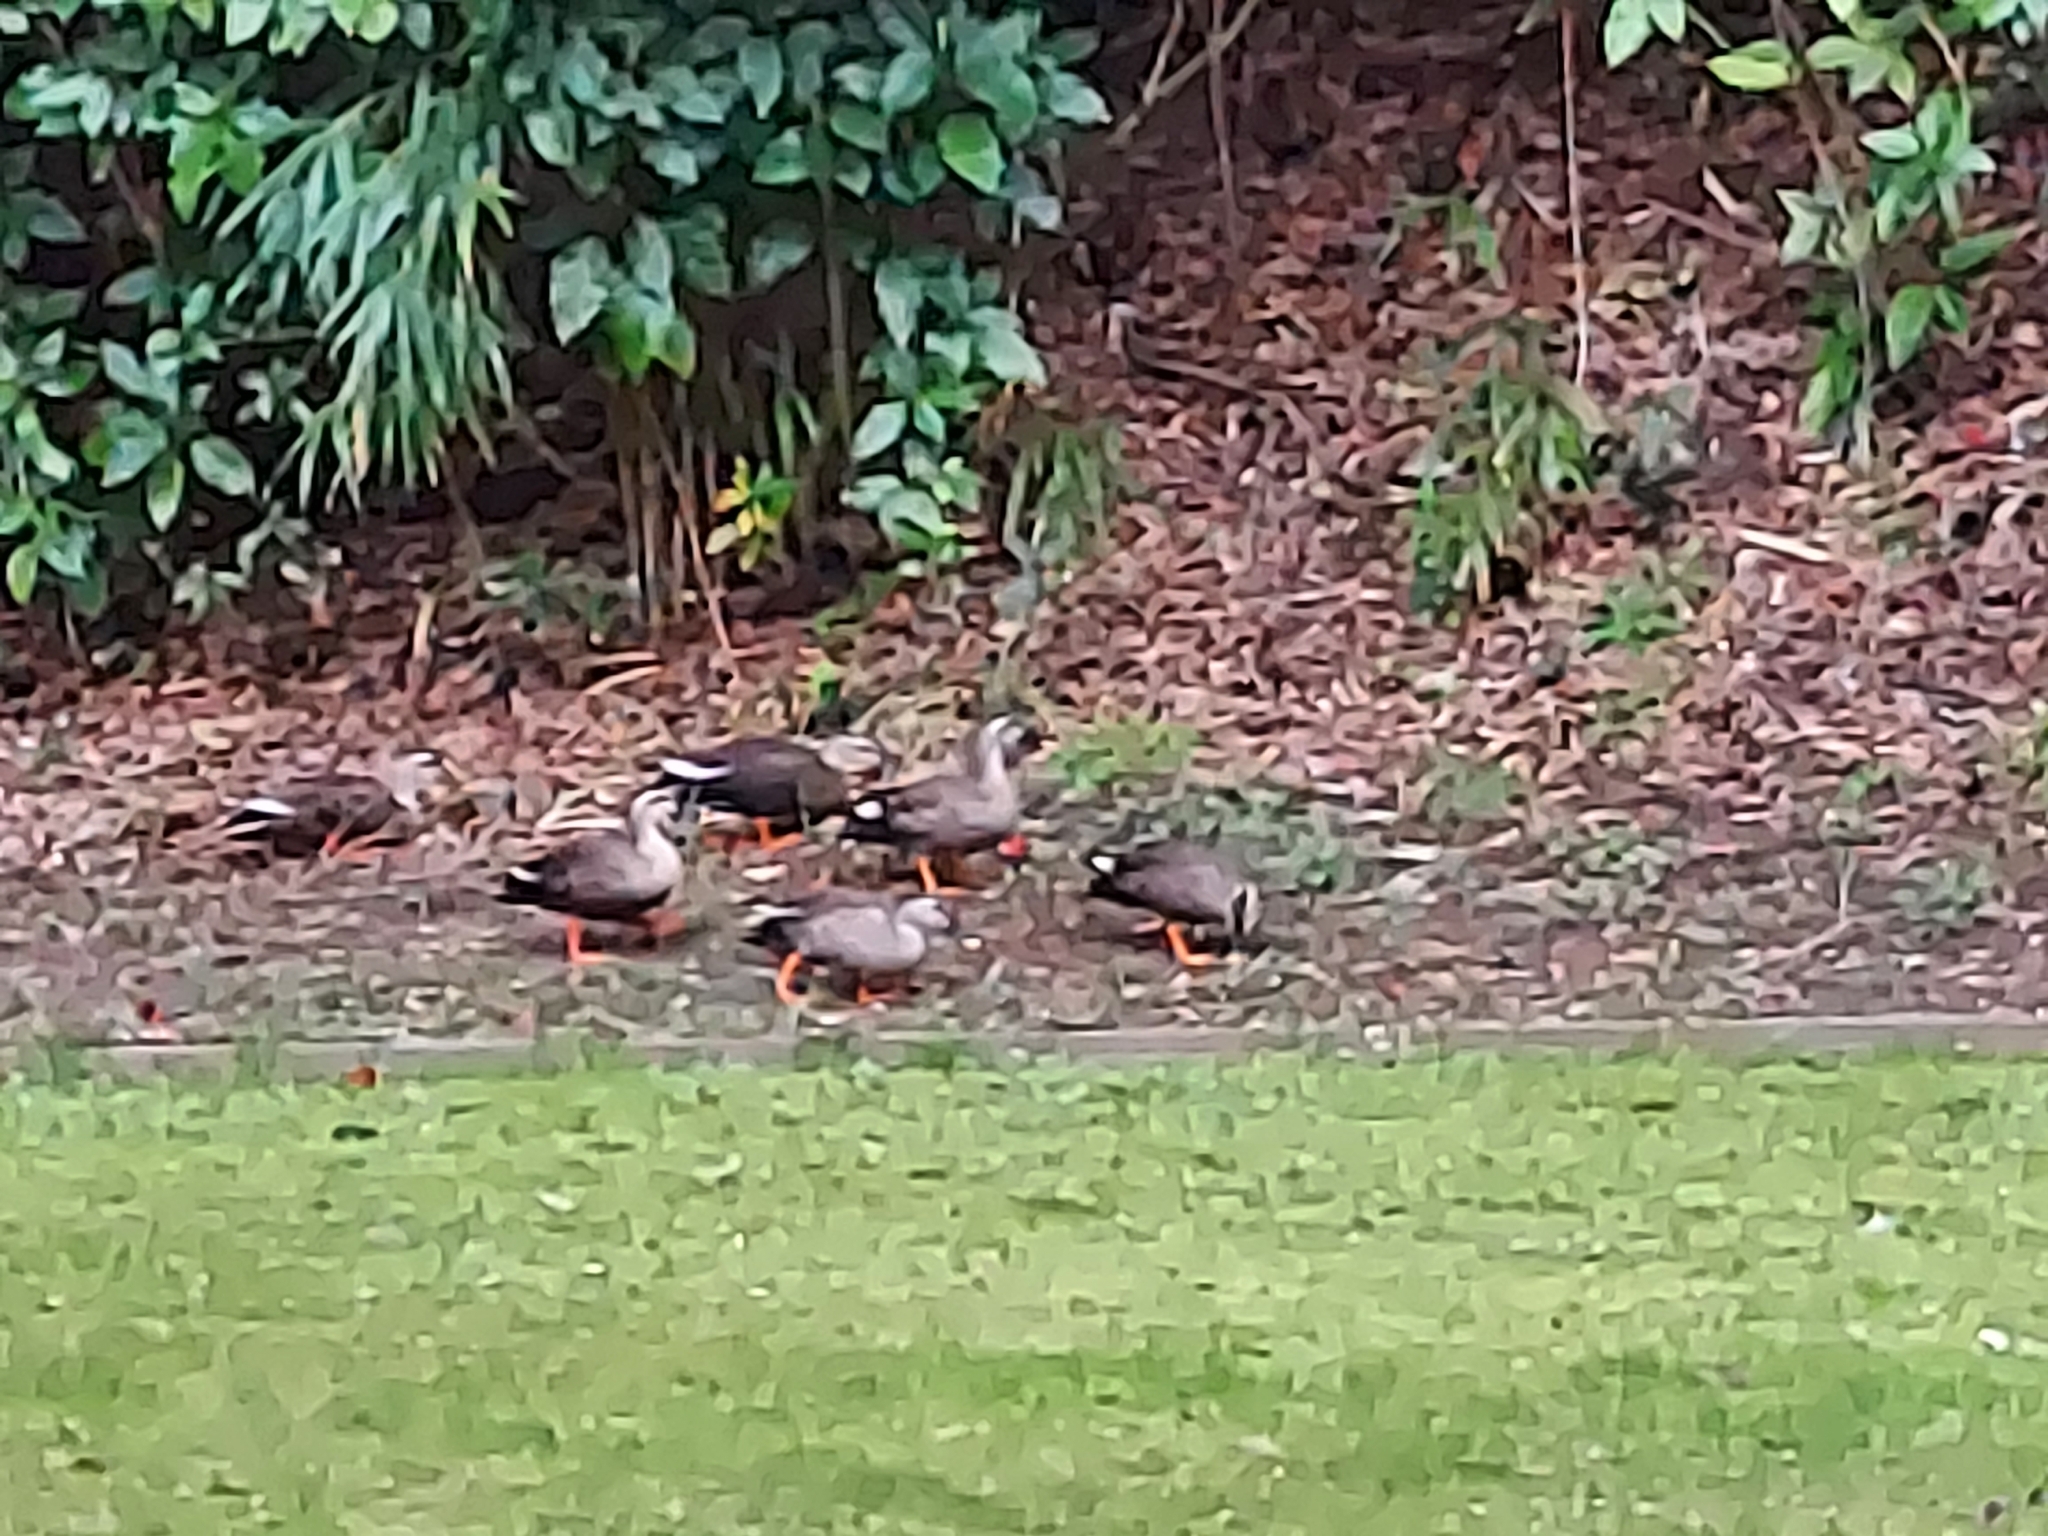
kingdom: Animalia
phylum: Chordata
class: Aves
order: Anseriformes
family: Anatidae
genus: Anas
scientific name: Anas zonorhyncha
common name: Eastern spot-billed duck
